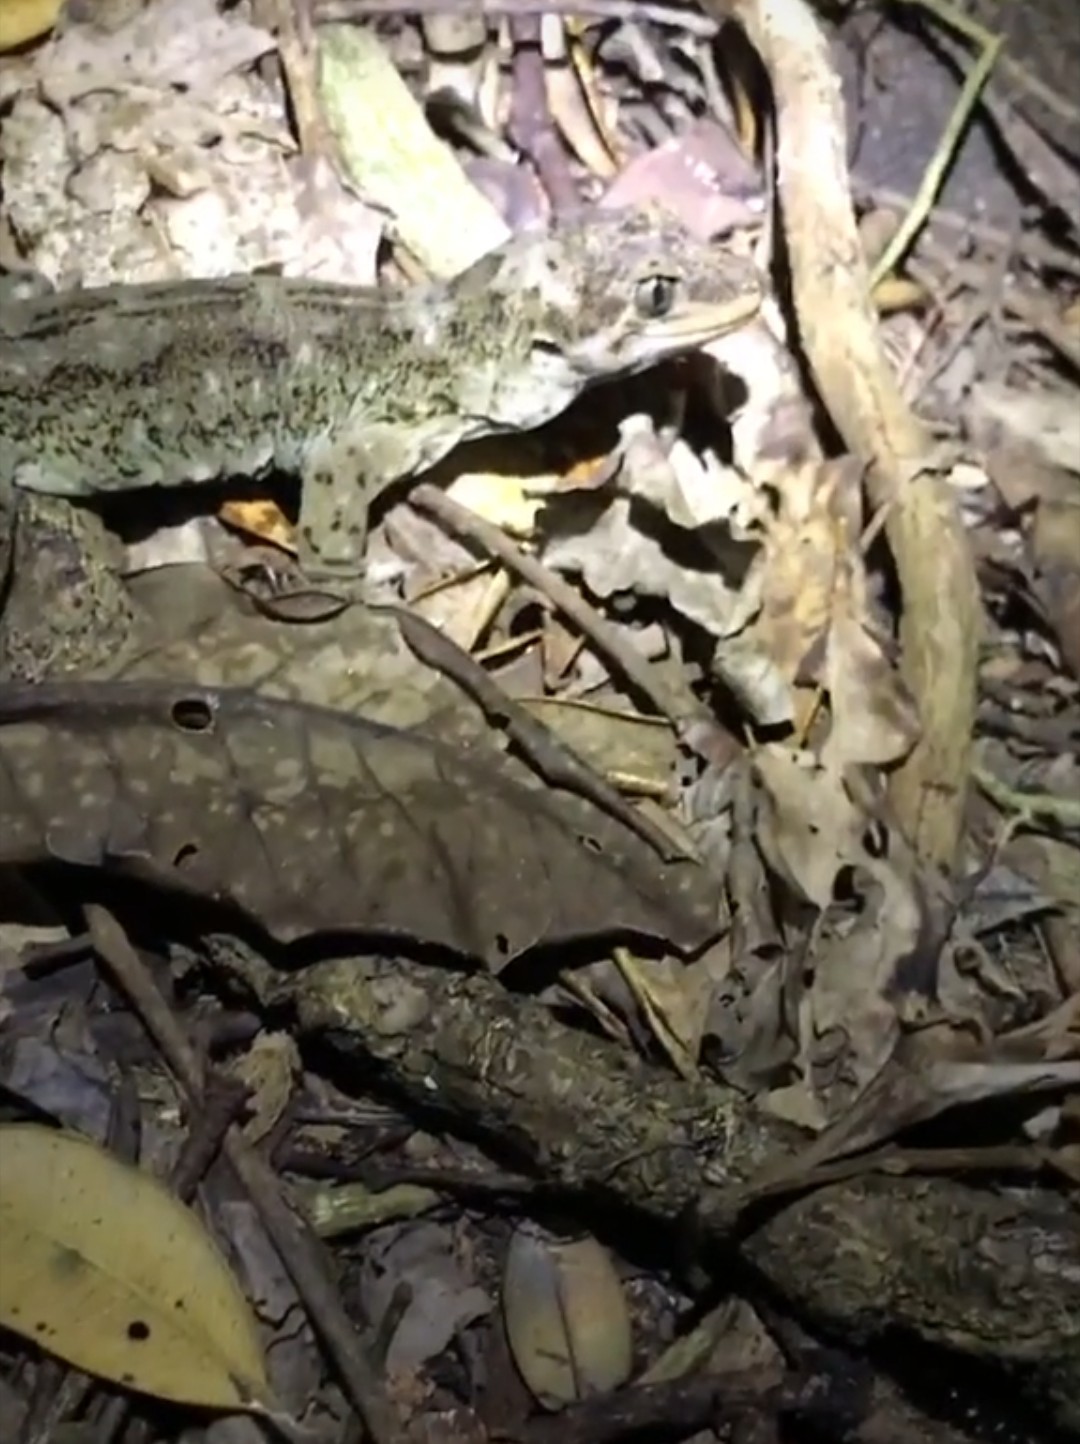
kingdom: Animalia
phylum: Chordata
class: Squamata
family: Diplodactylidae
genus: Hoplodactylus
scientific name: Hoplodactylus duvaucelii
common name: Duvaucel's gecko
